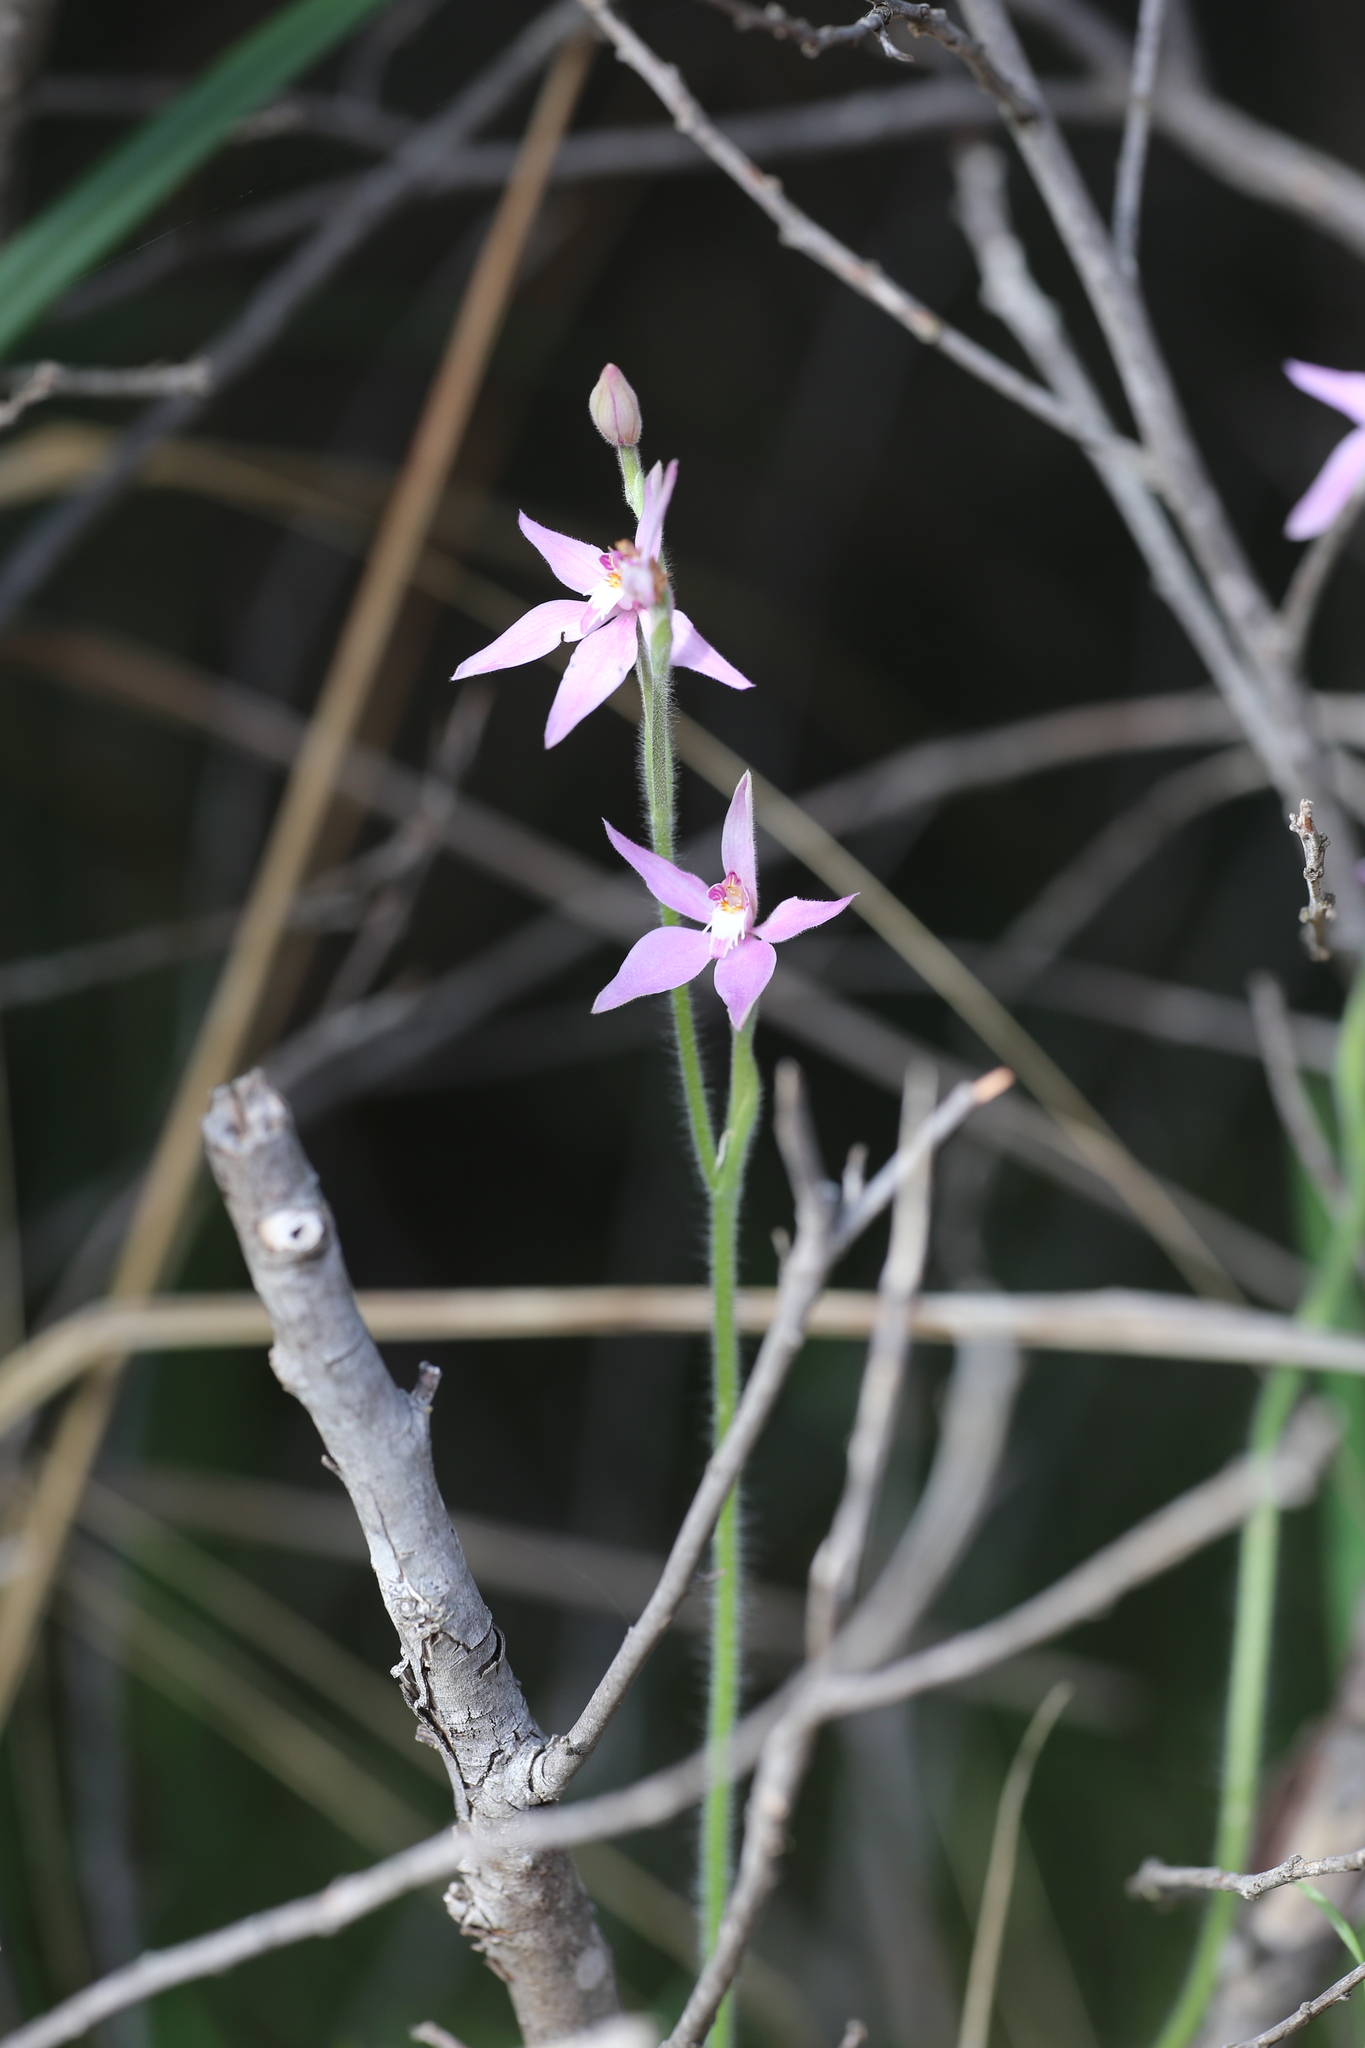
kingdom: Plantae
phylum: Tracheophyta
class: Liliopsida
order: Asparagales
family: Orchidaceae
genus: Caladenia
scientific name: Caladenia latifolia
